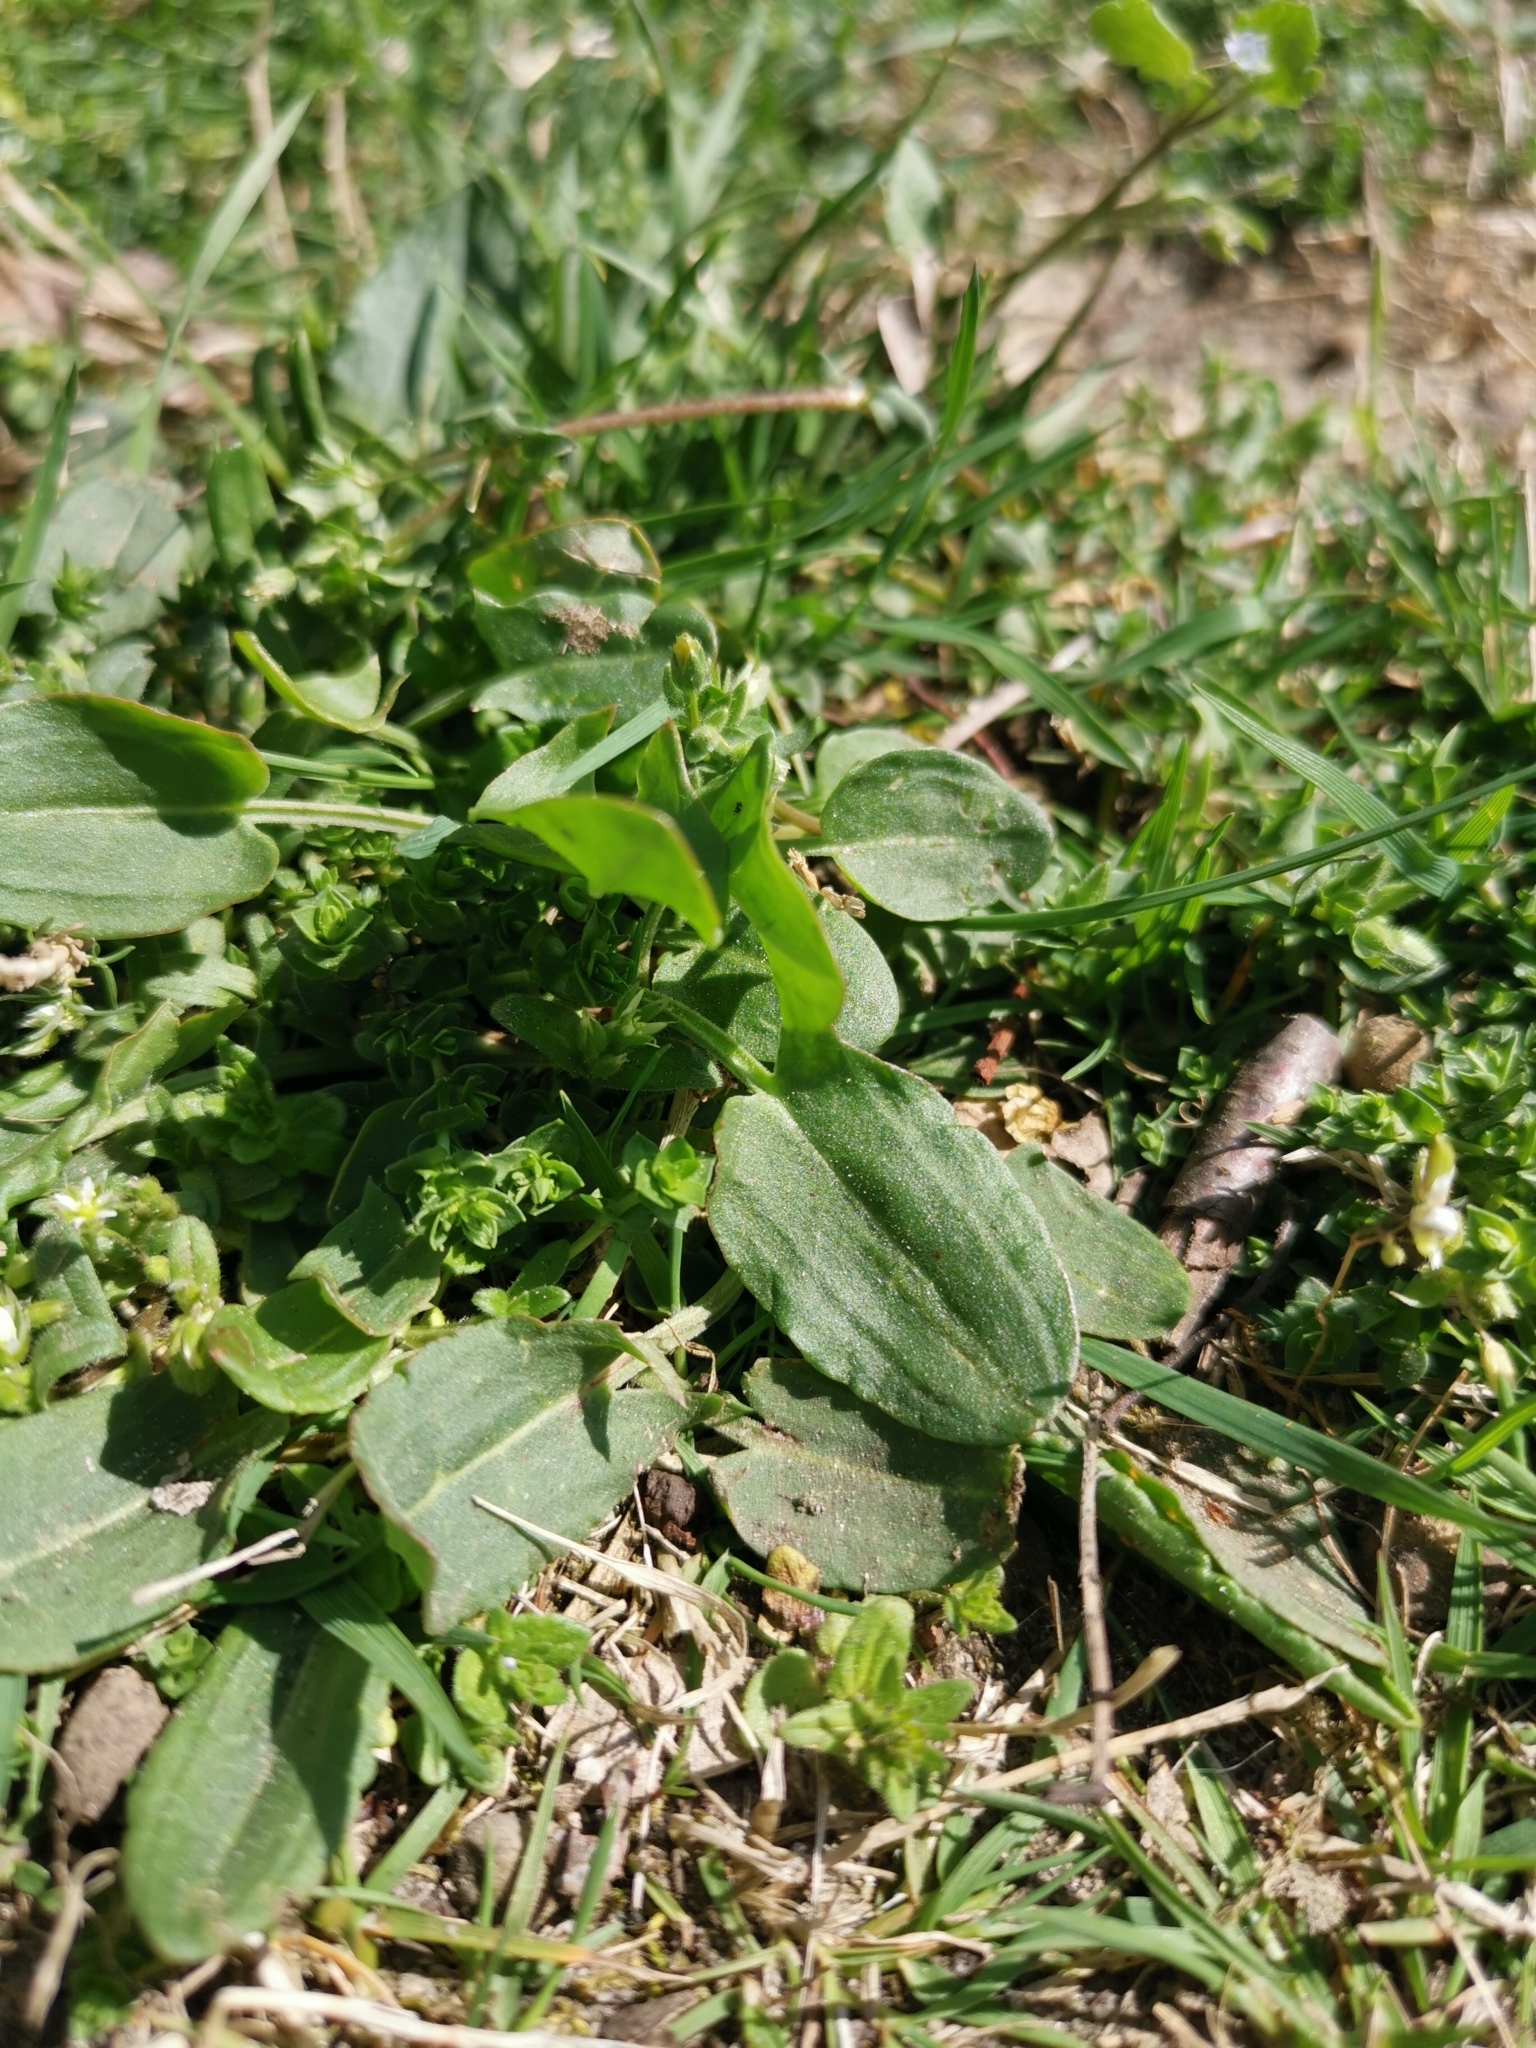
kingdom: Plantae
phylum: Tracheophyta
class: Magnoliopsida
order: Caryophyllales
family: Polygonaceae
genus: Rumex
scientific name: Rumex acetosa
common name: Garden sorrel
